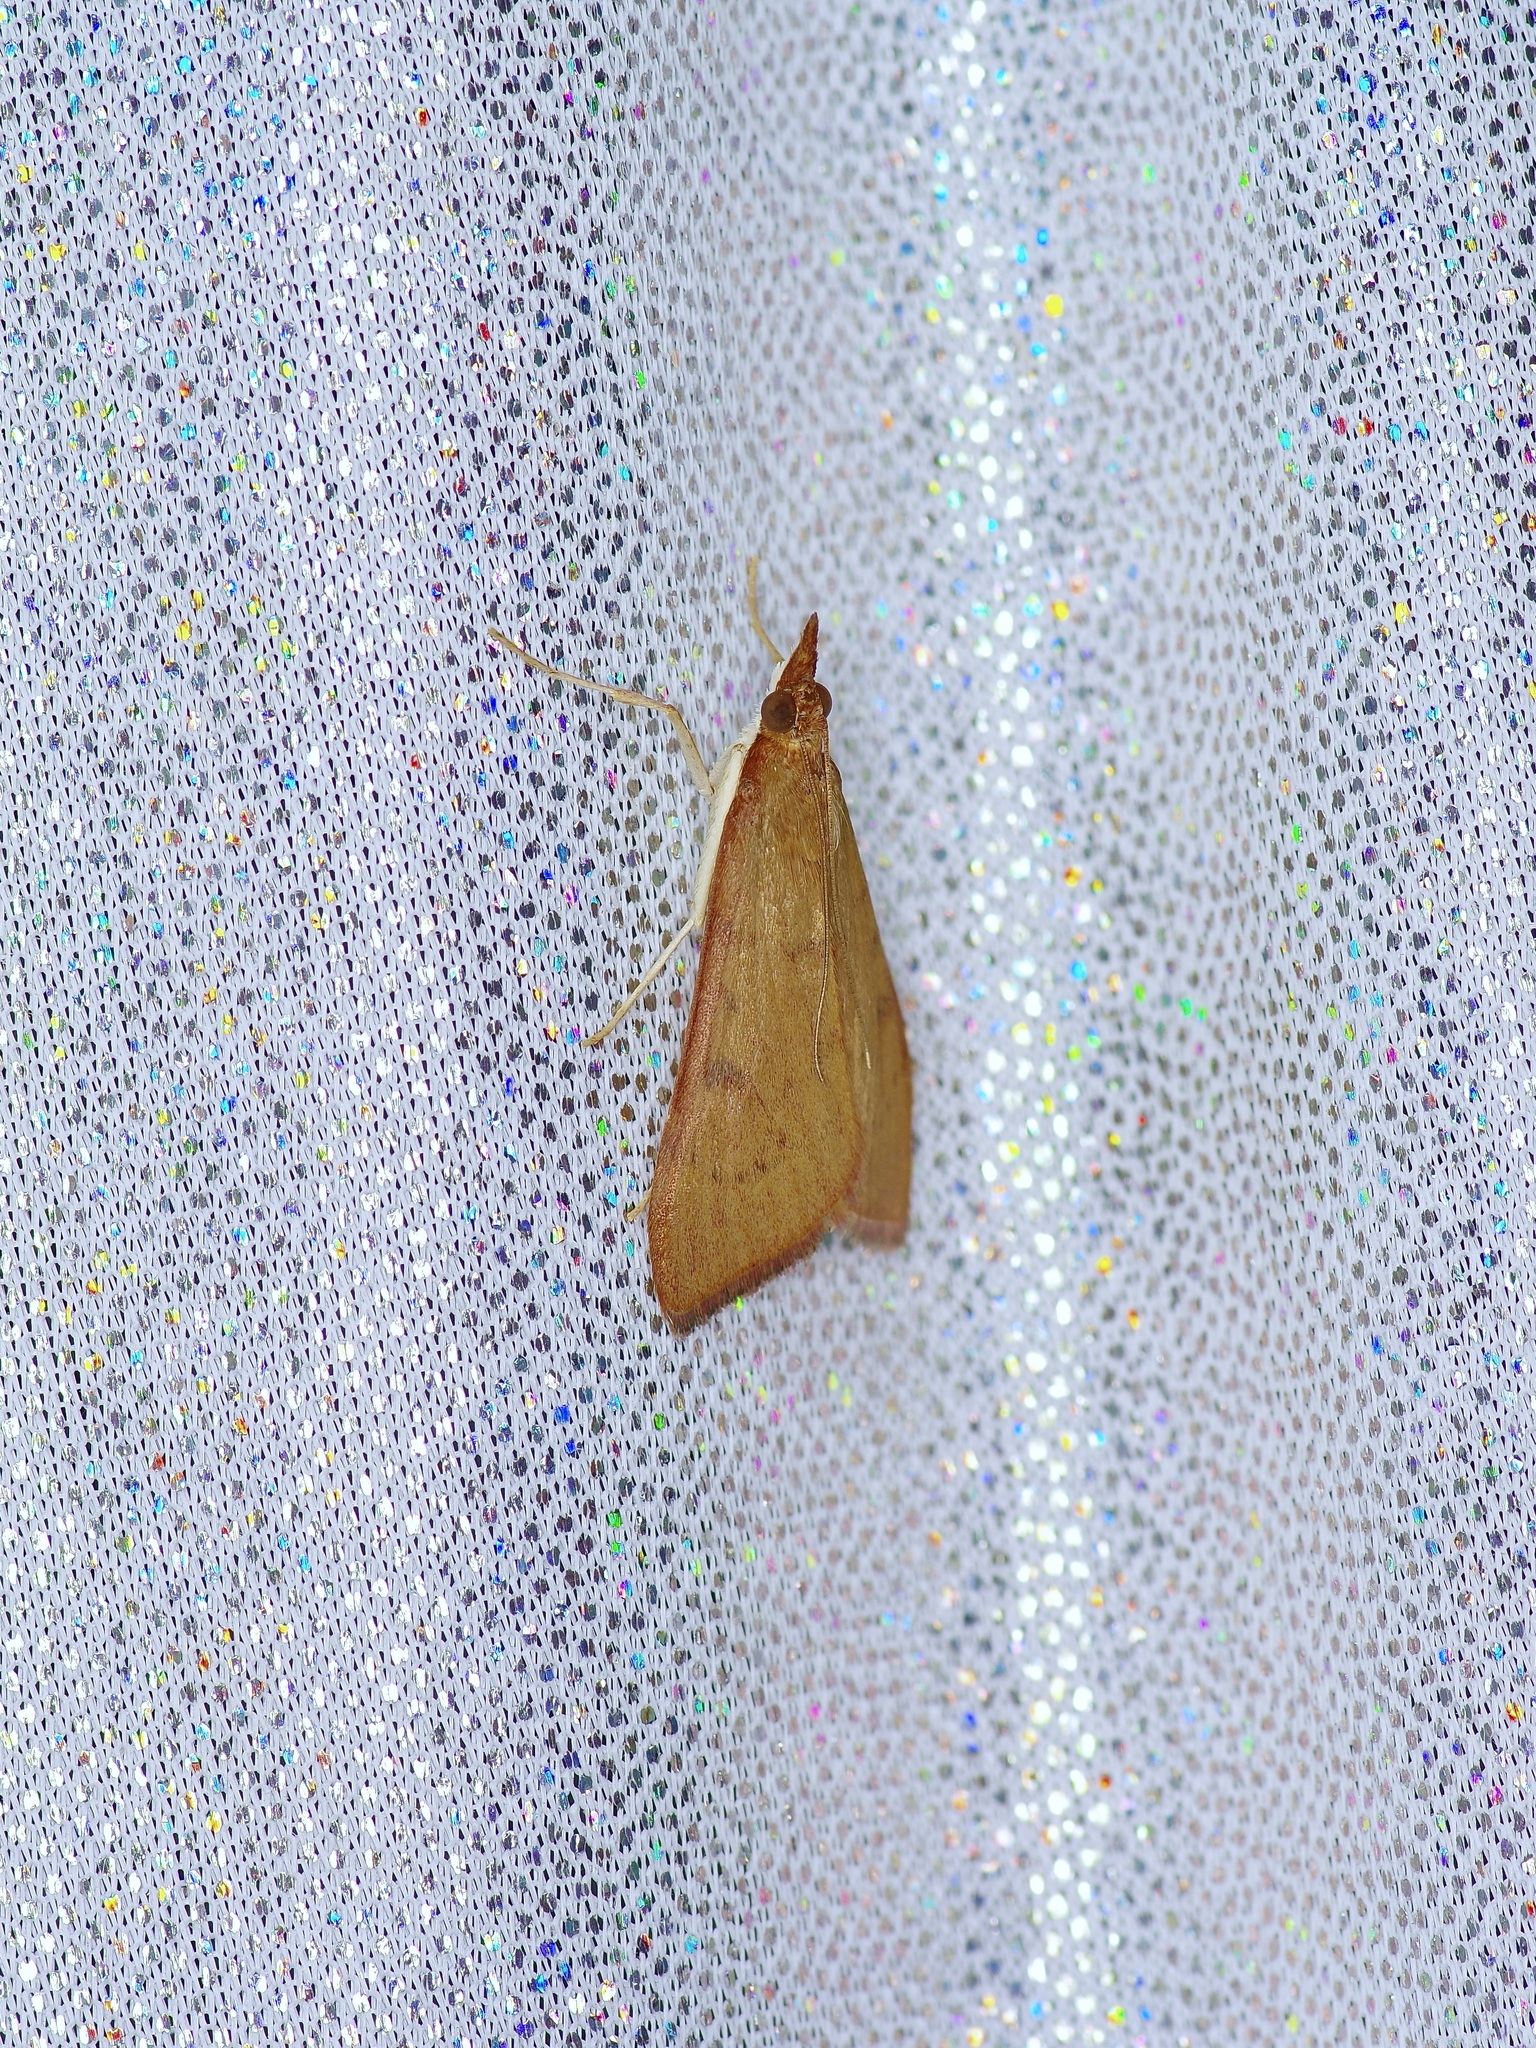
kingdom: Animalia
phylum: Arthropoda
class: Insecta
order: Lepidoptera
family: Crambidae
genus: Uresiphita
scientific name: Uresiphita reversalis
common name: Genista broom moth
